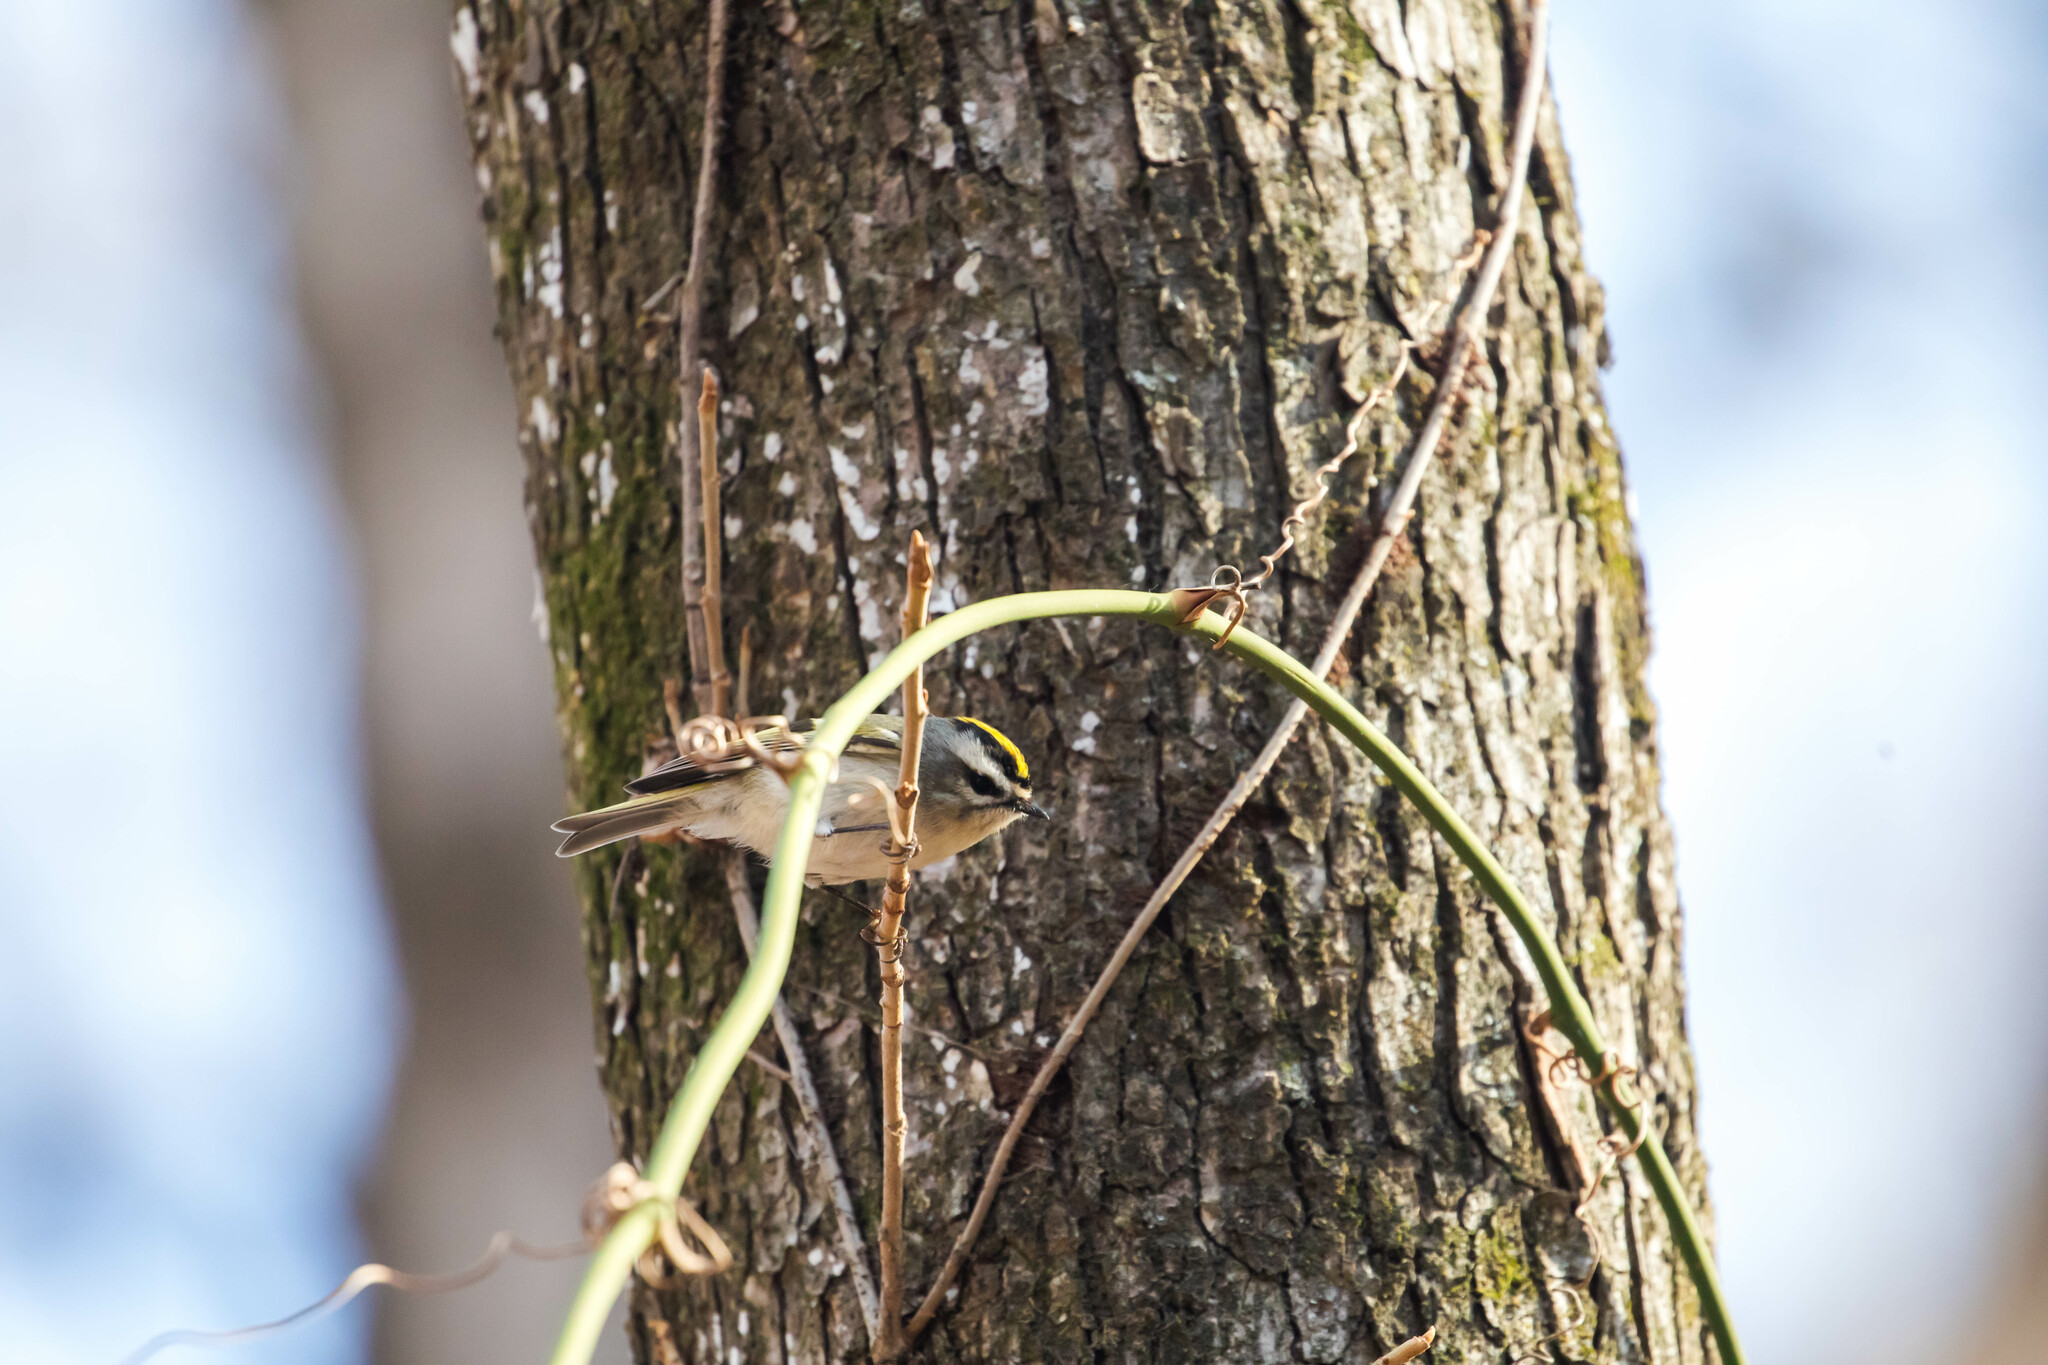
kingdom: Animalia
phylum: Chordata
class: Aves
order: Passeriformes
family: Regulidae
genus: Regulus
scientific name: Regulus satrapa
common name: Golden-crowned kinglet
